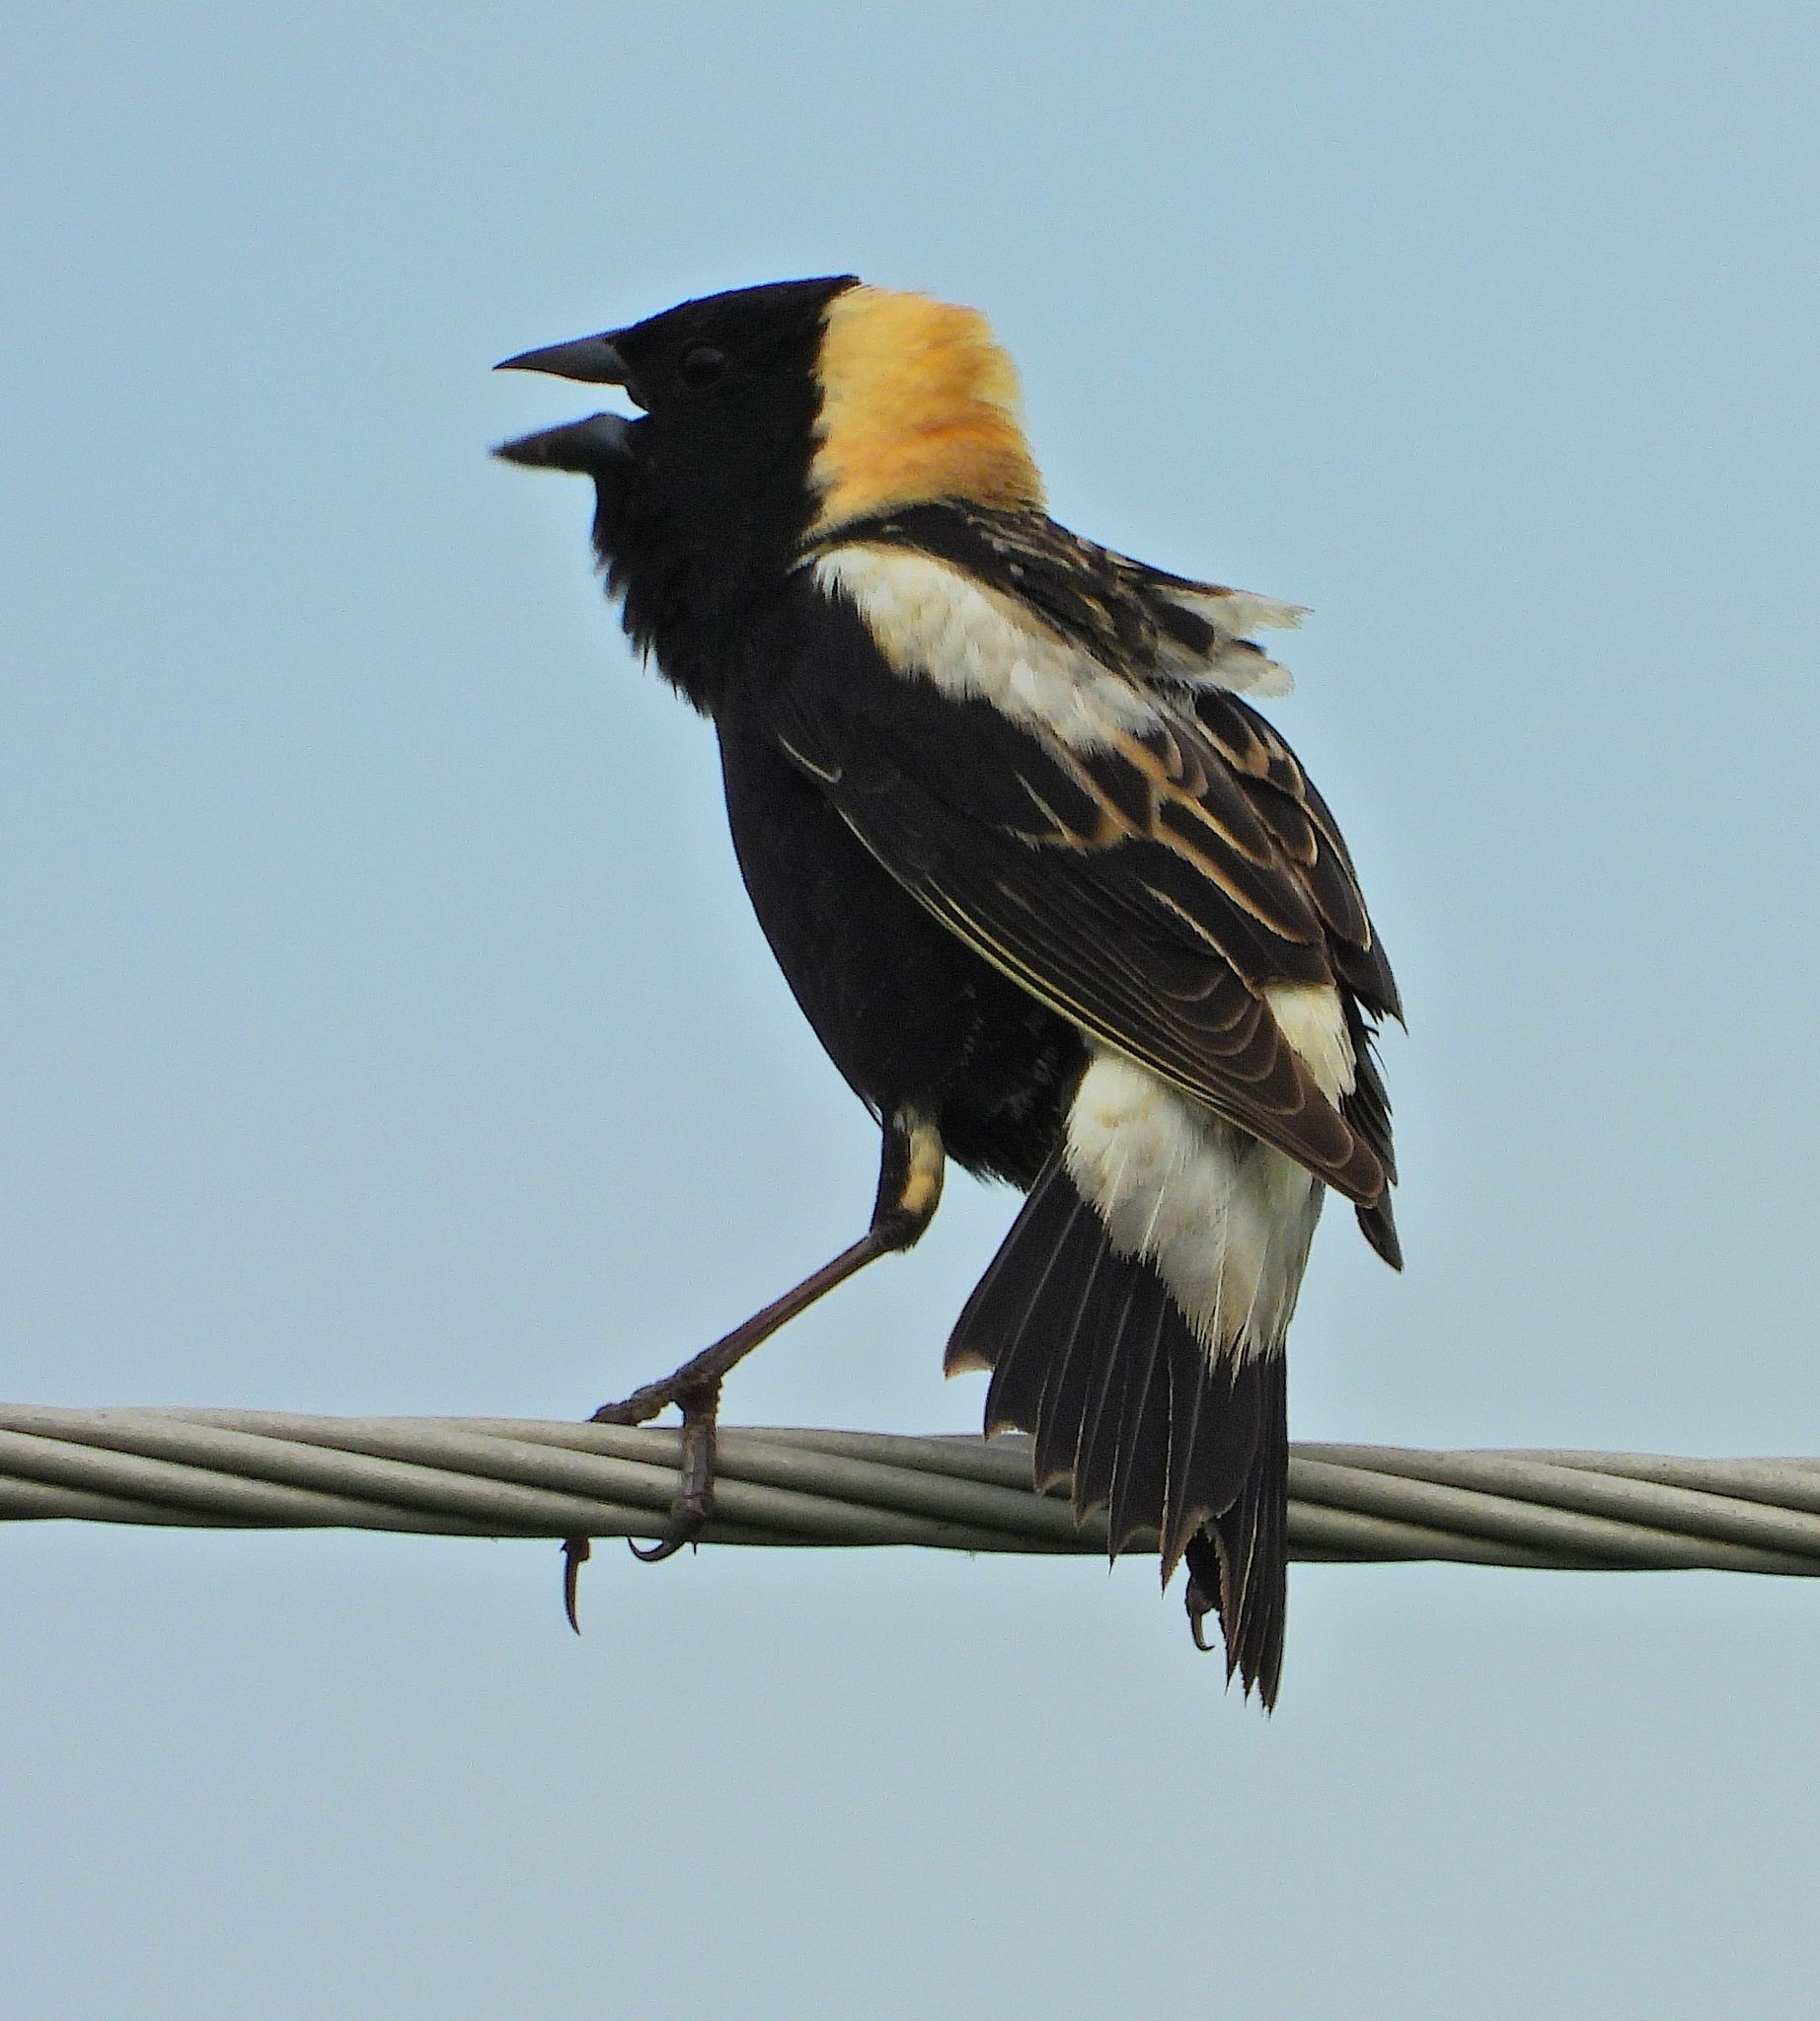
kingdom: Animalia
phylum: Chordata
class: Aves
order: Passeriformes
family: Icteridae
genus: Dolichonyx
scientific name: Dolichonyx oryzivorus
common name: Bobolink
